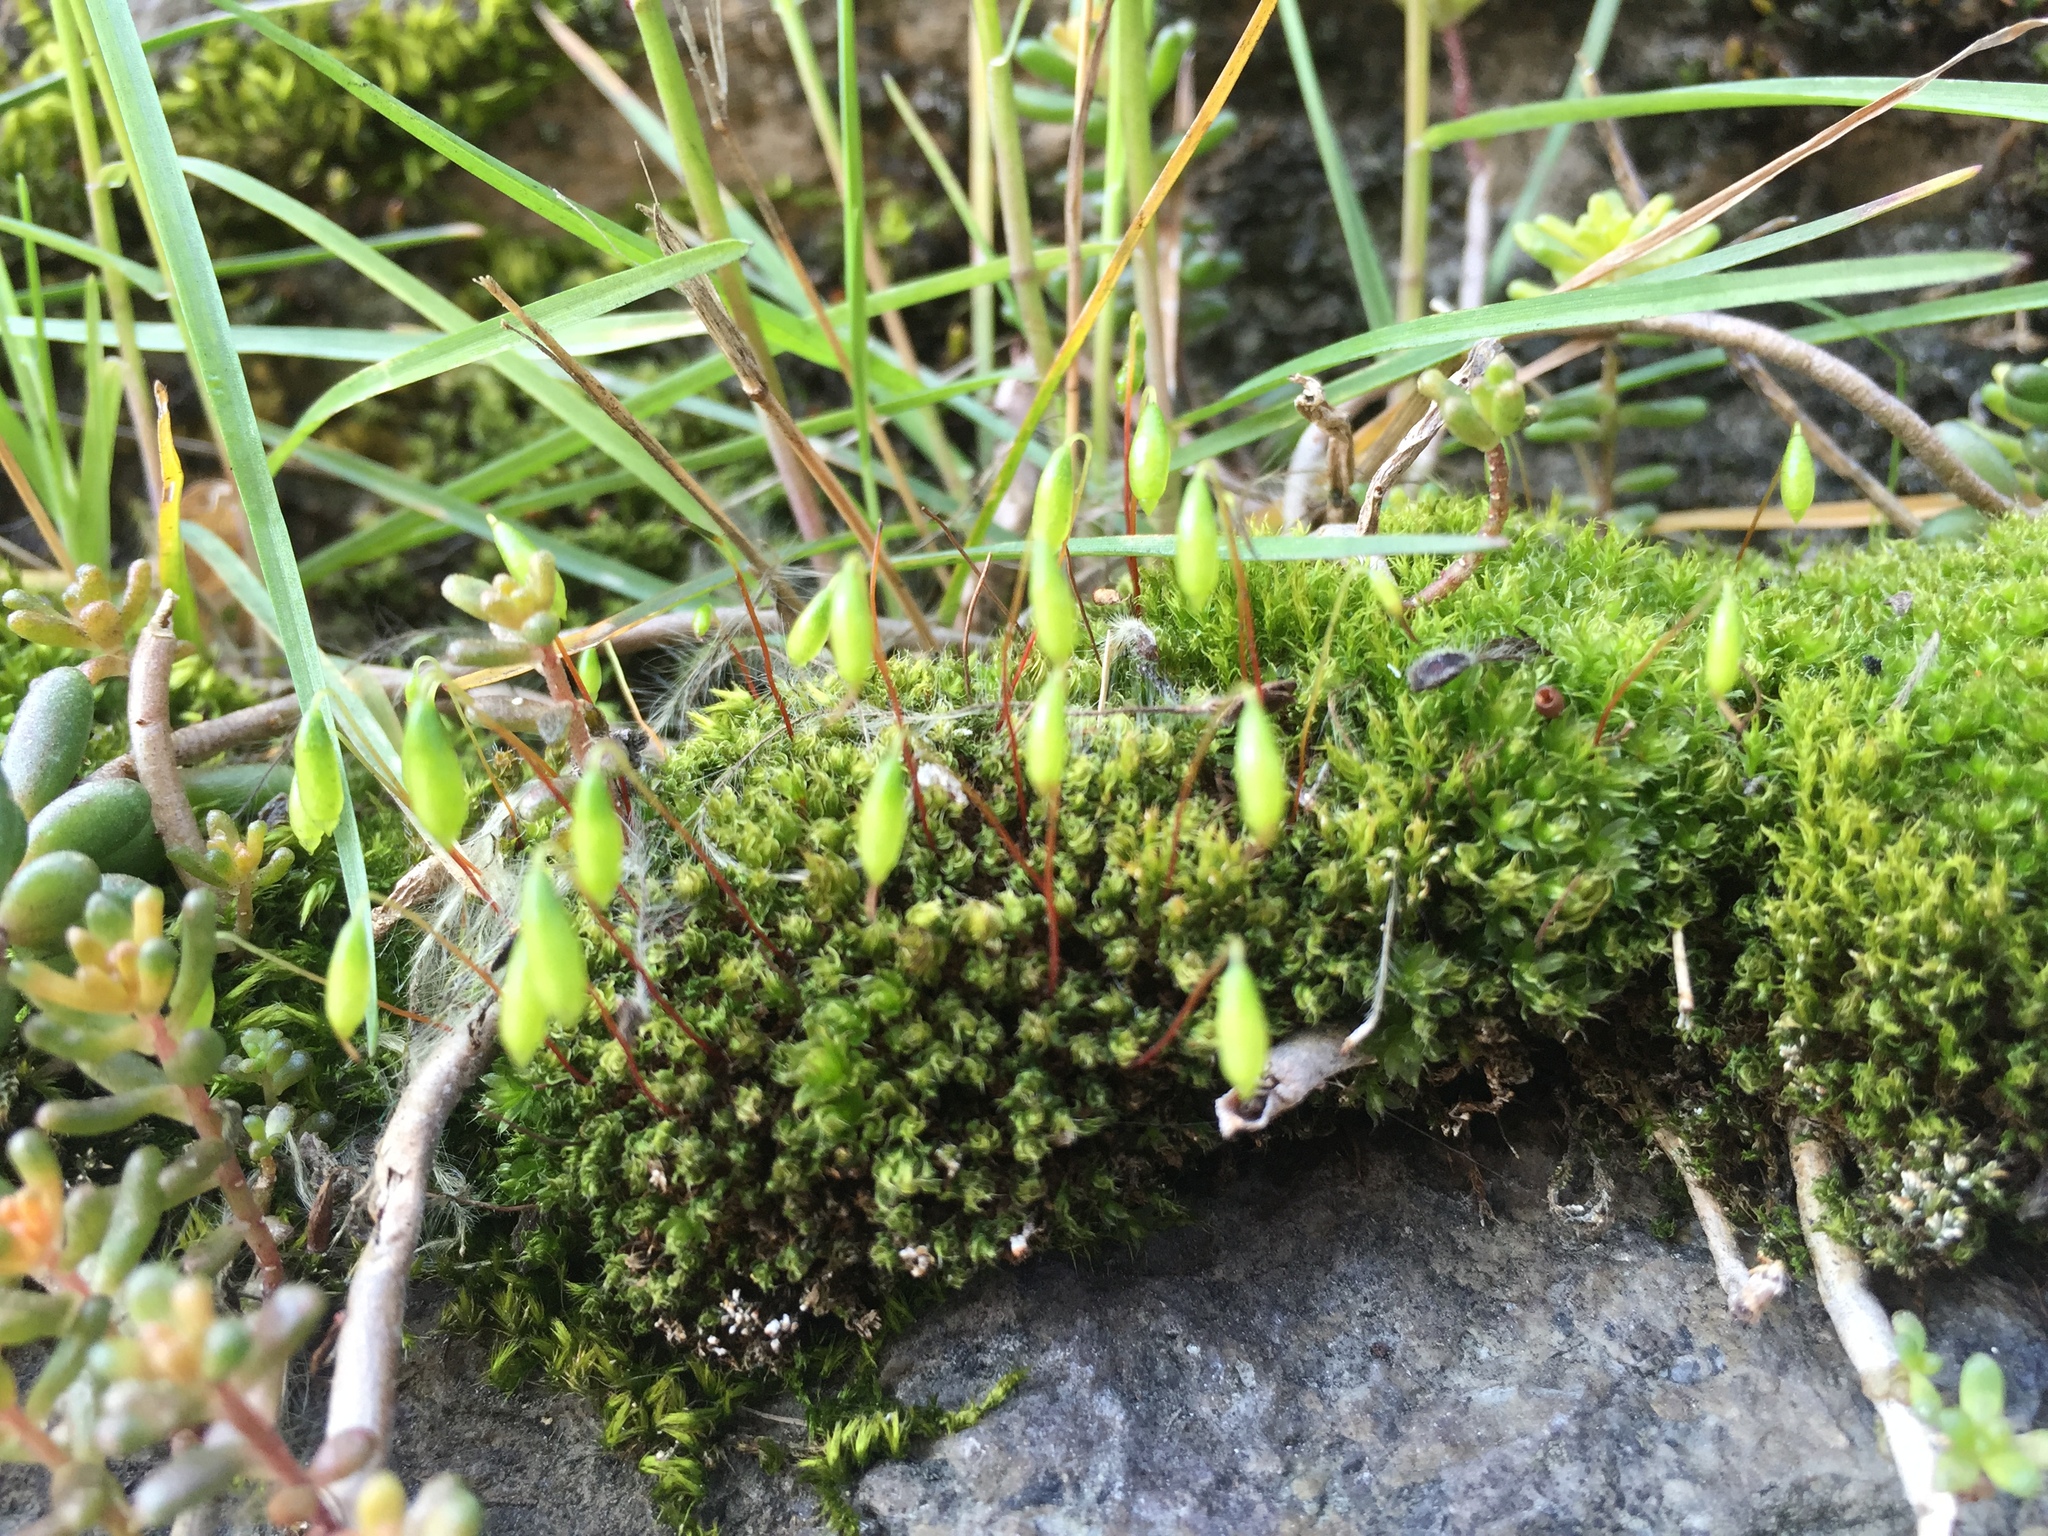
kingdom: Plantae
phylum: Bryophyta
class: Bryopsida
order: Bryales
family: Bryaceae
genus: Rosulabryum
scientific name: Rosulabryum capillare
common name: Capillary thread-moss
